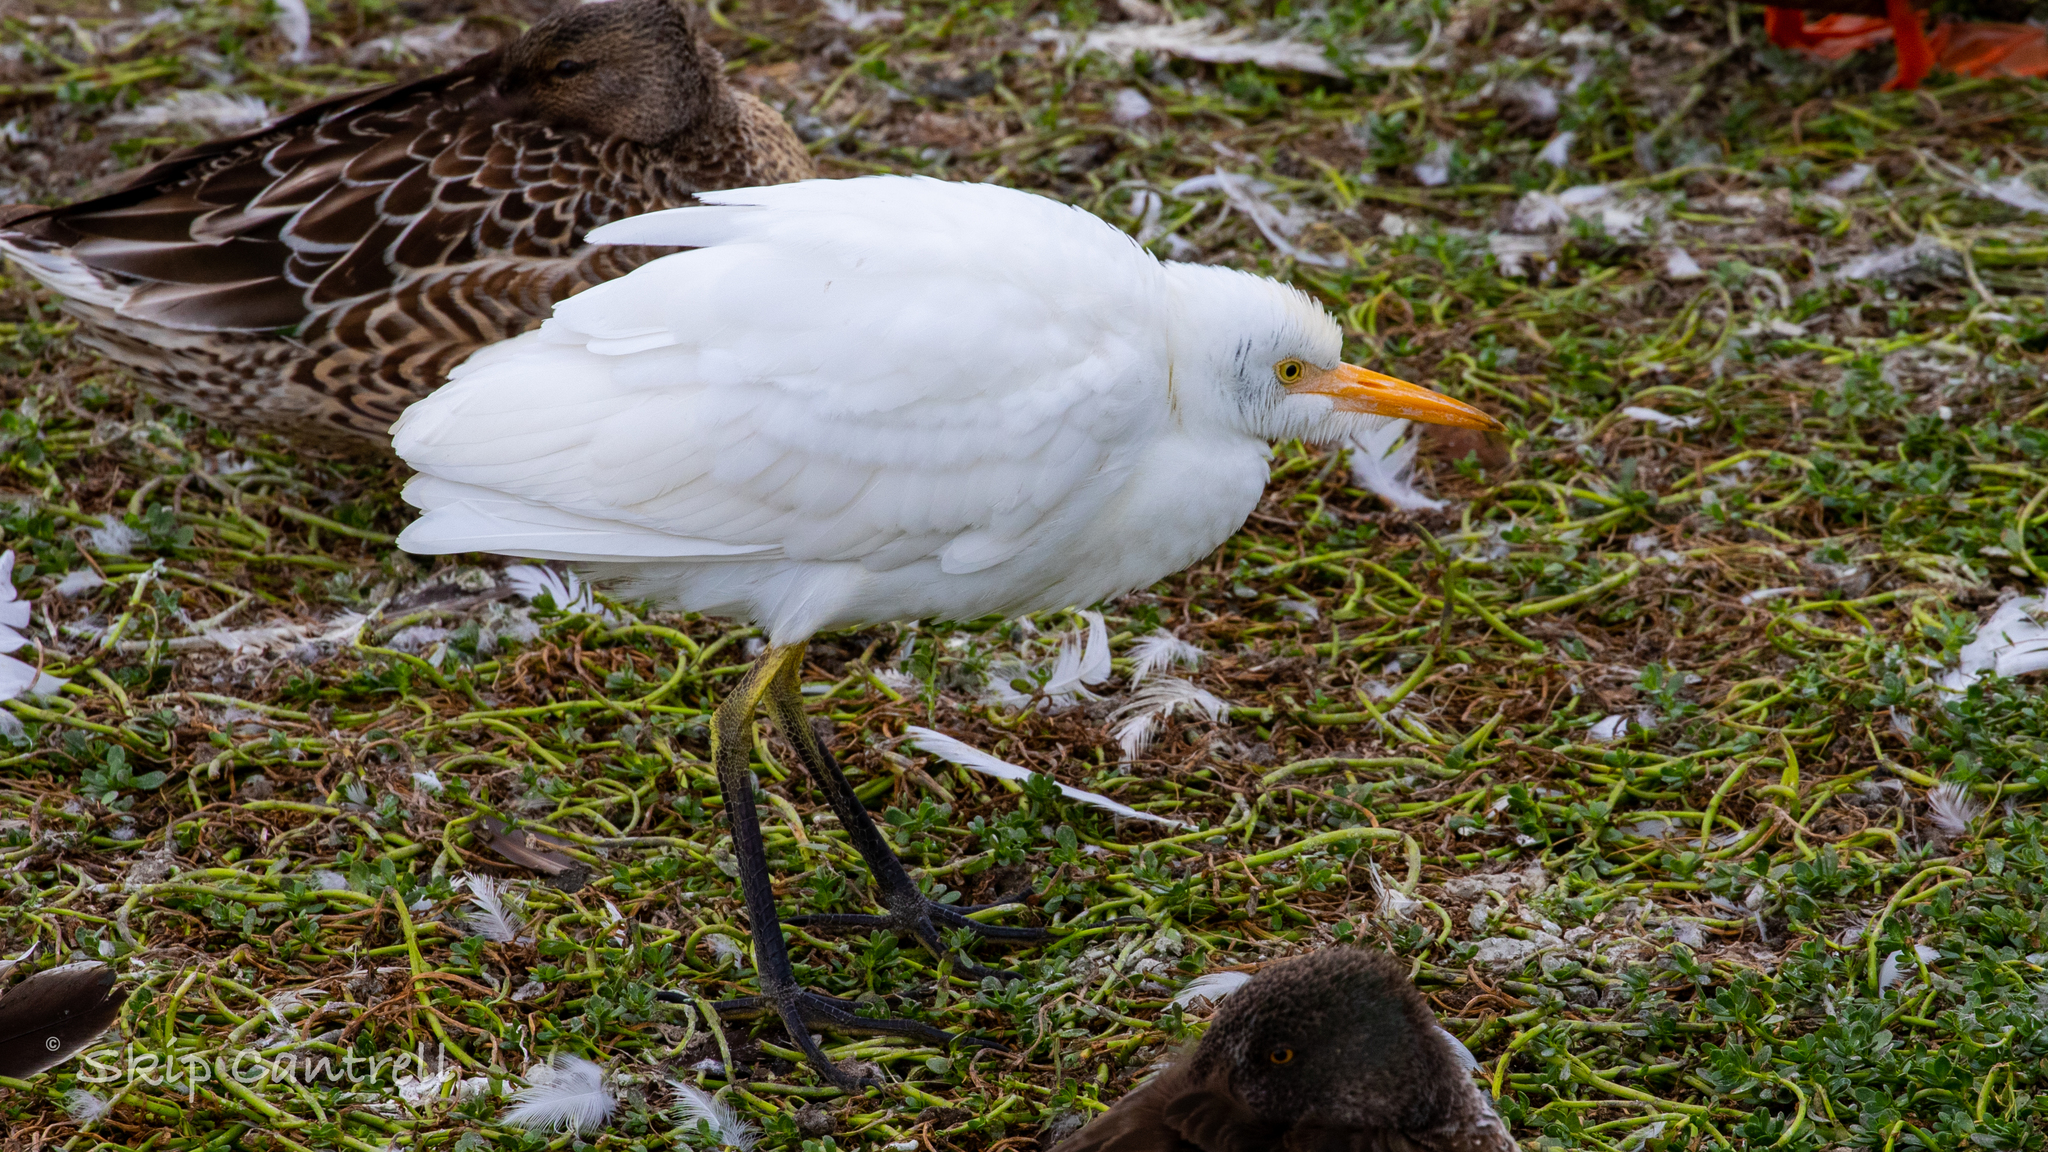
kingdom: Animalia
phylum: Chordata
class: Aves
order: Pelecaniformes
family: Ardeidae
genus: Bubulcus
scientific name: Bubulcus ibis
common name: Cattle egret
